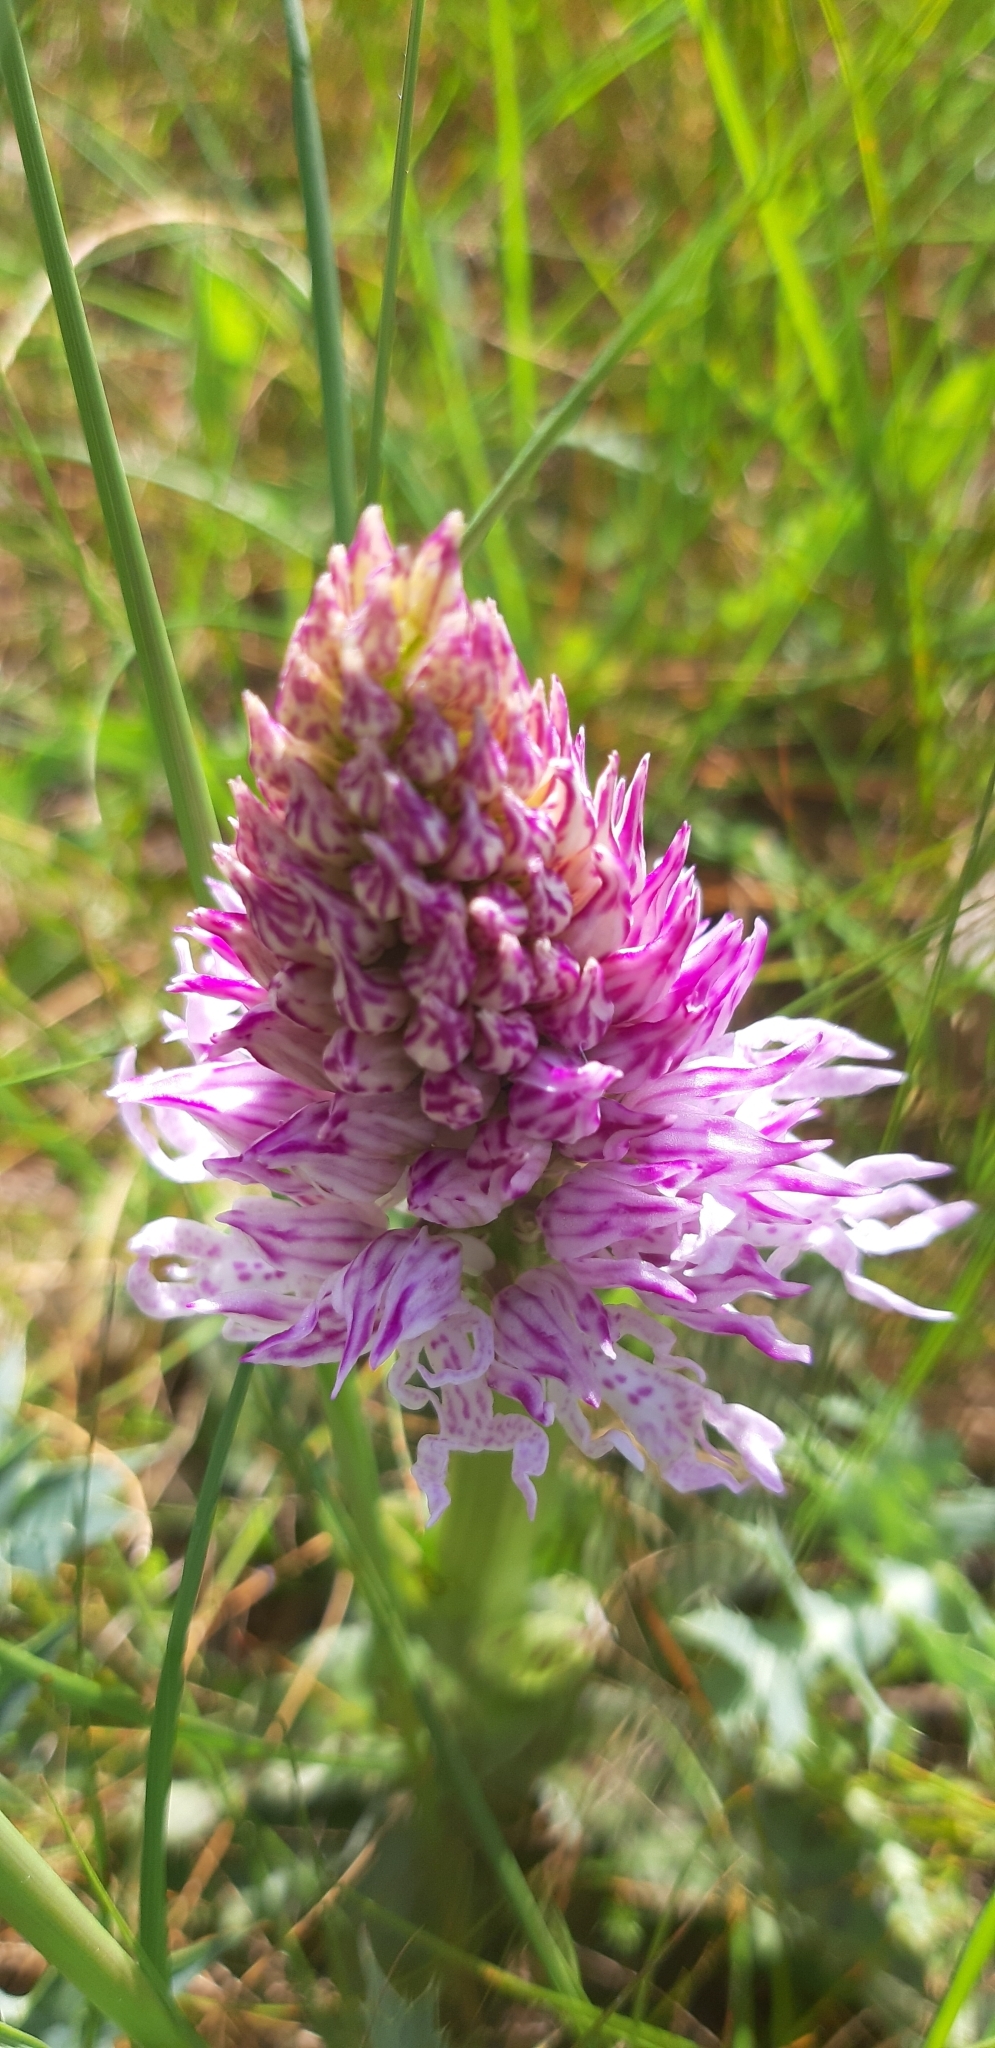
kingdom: Plantae
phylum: Tracheophyta
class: Liliopsida
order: Asparagales
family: Orchidaceae
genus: Orchis
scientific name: Orchis italica
